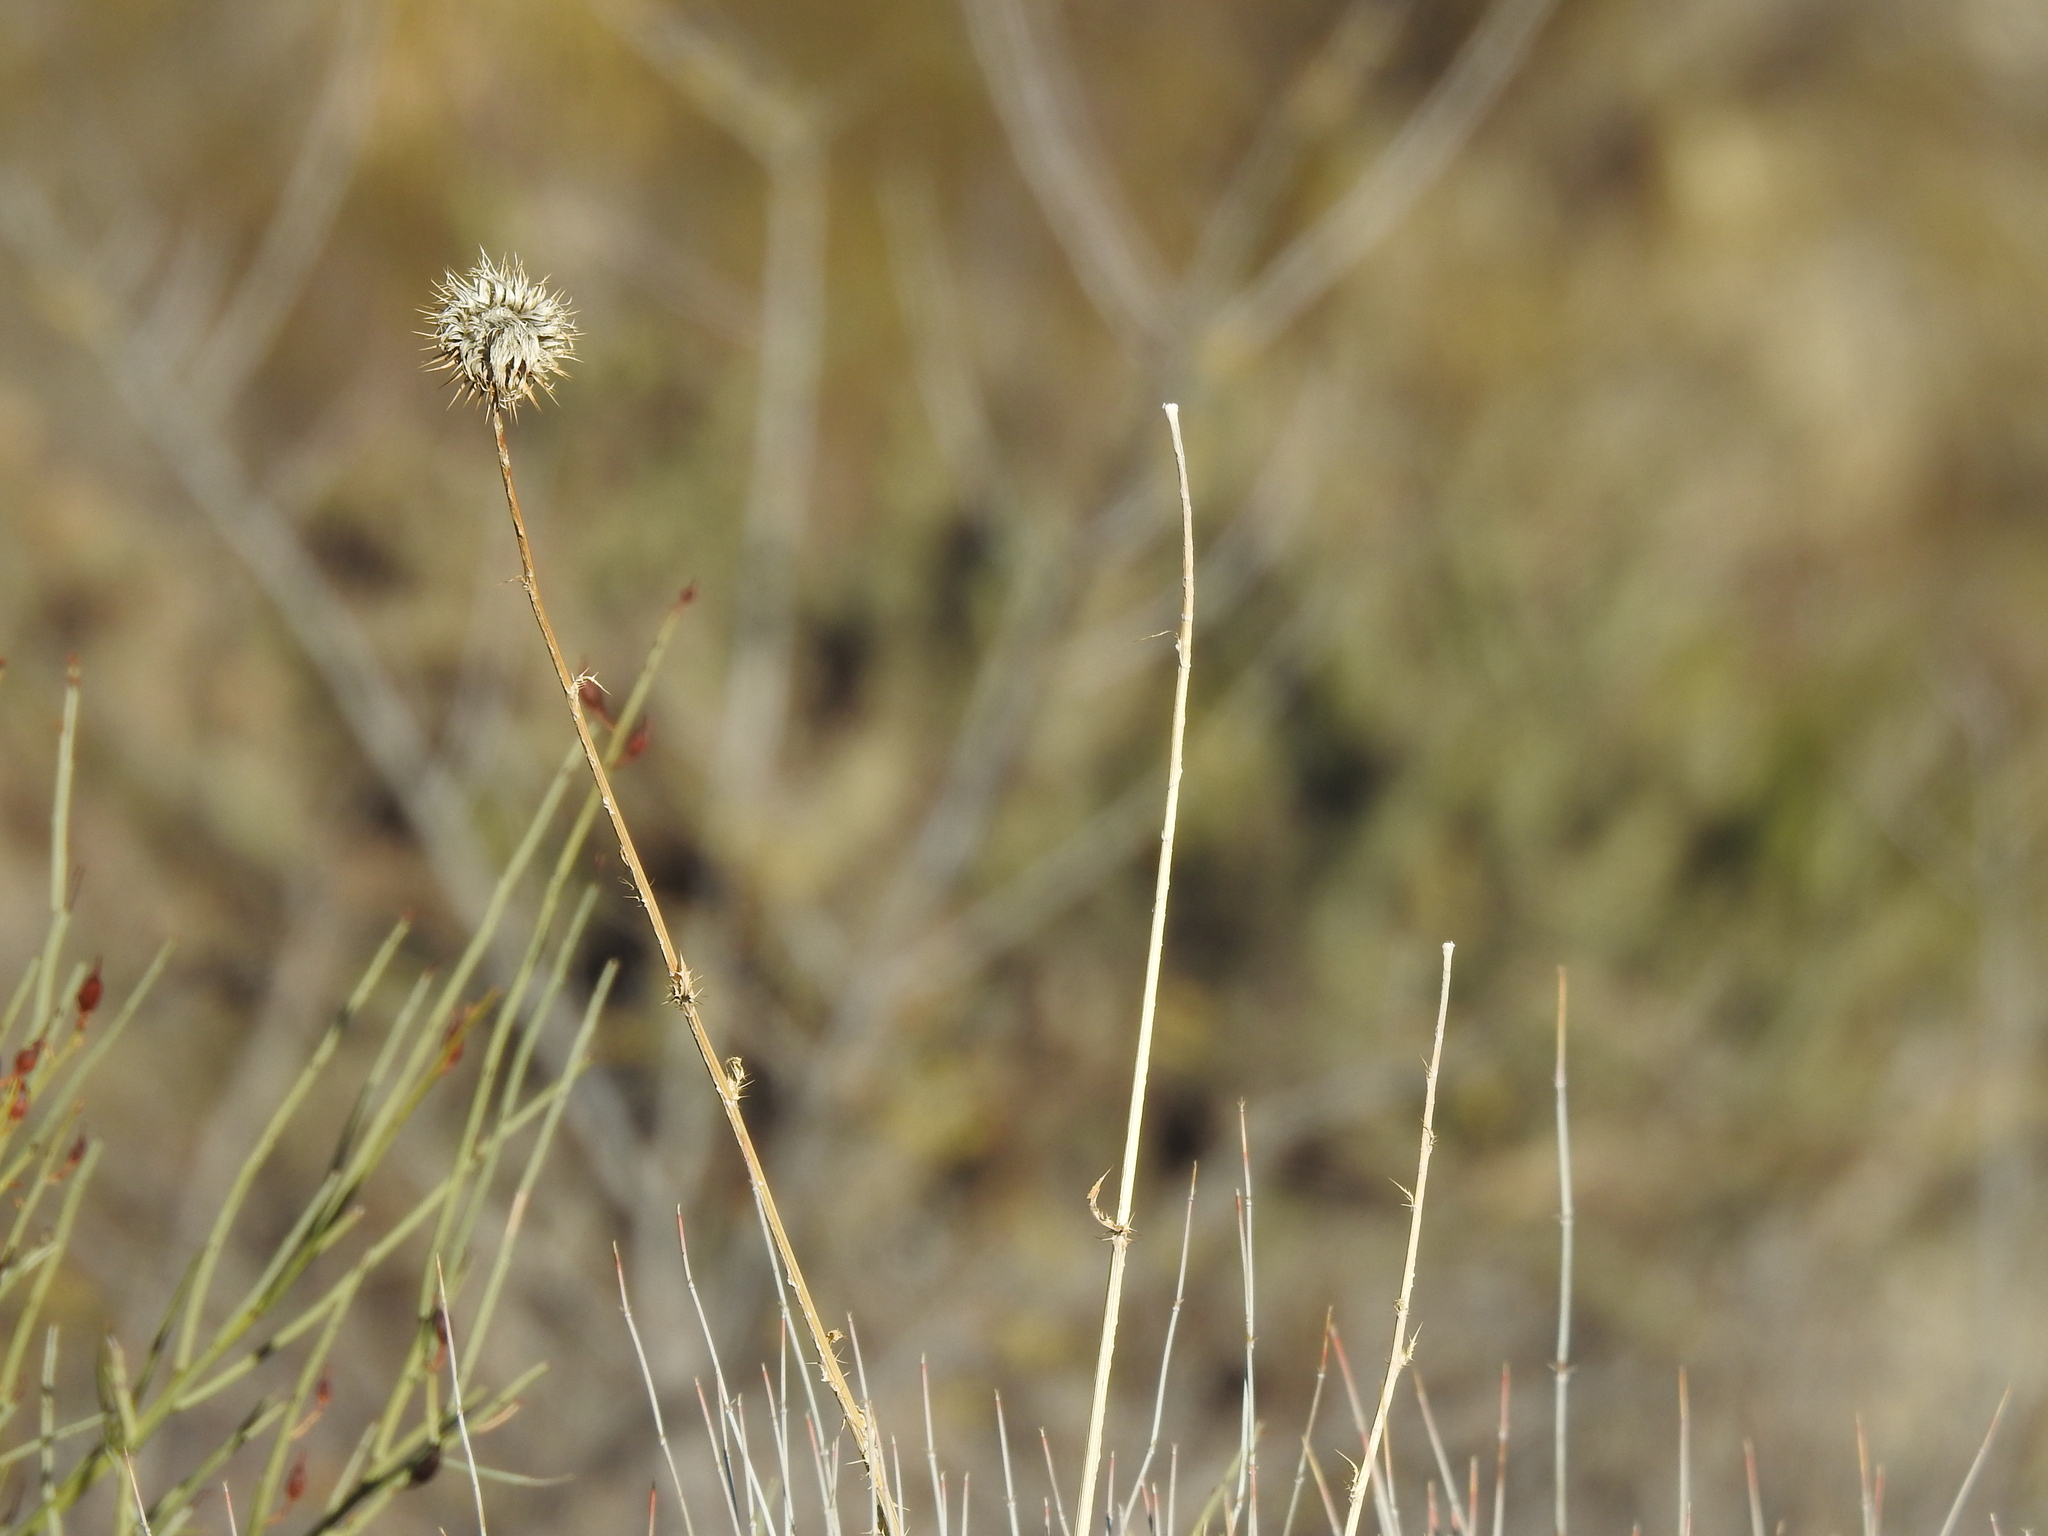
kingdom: Plantae
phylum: Tracheophyta
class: Magnoliopsida
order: Asterales
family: Asteraceae
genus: Cirsium
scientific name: Cirsium neomexicanum
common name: New mexico thistle
